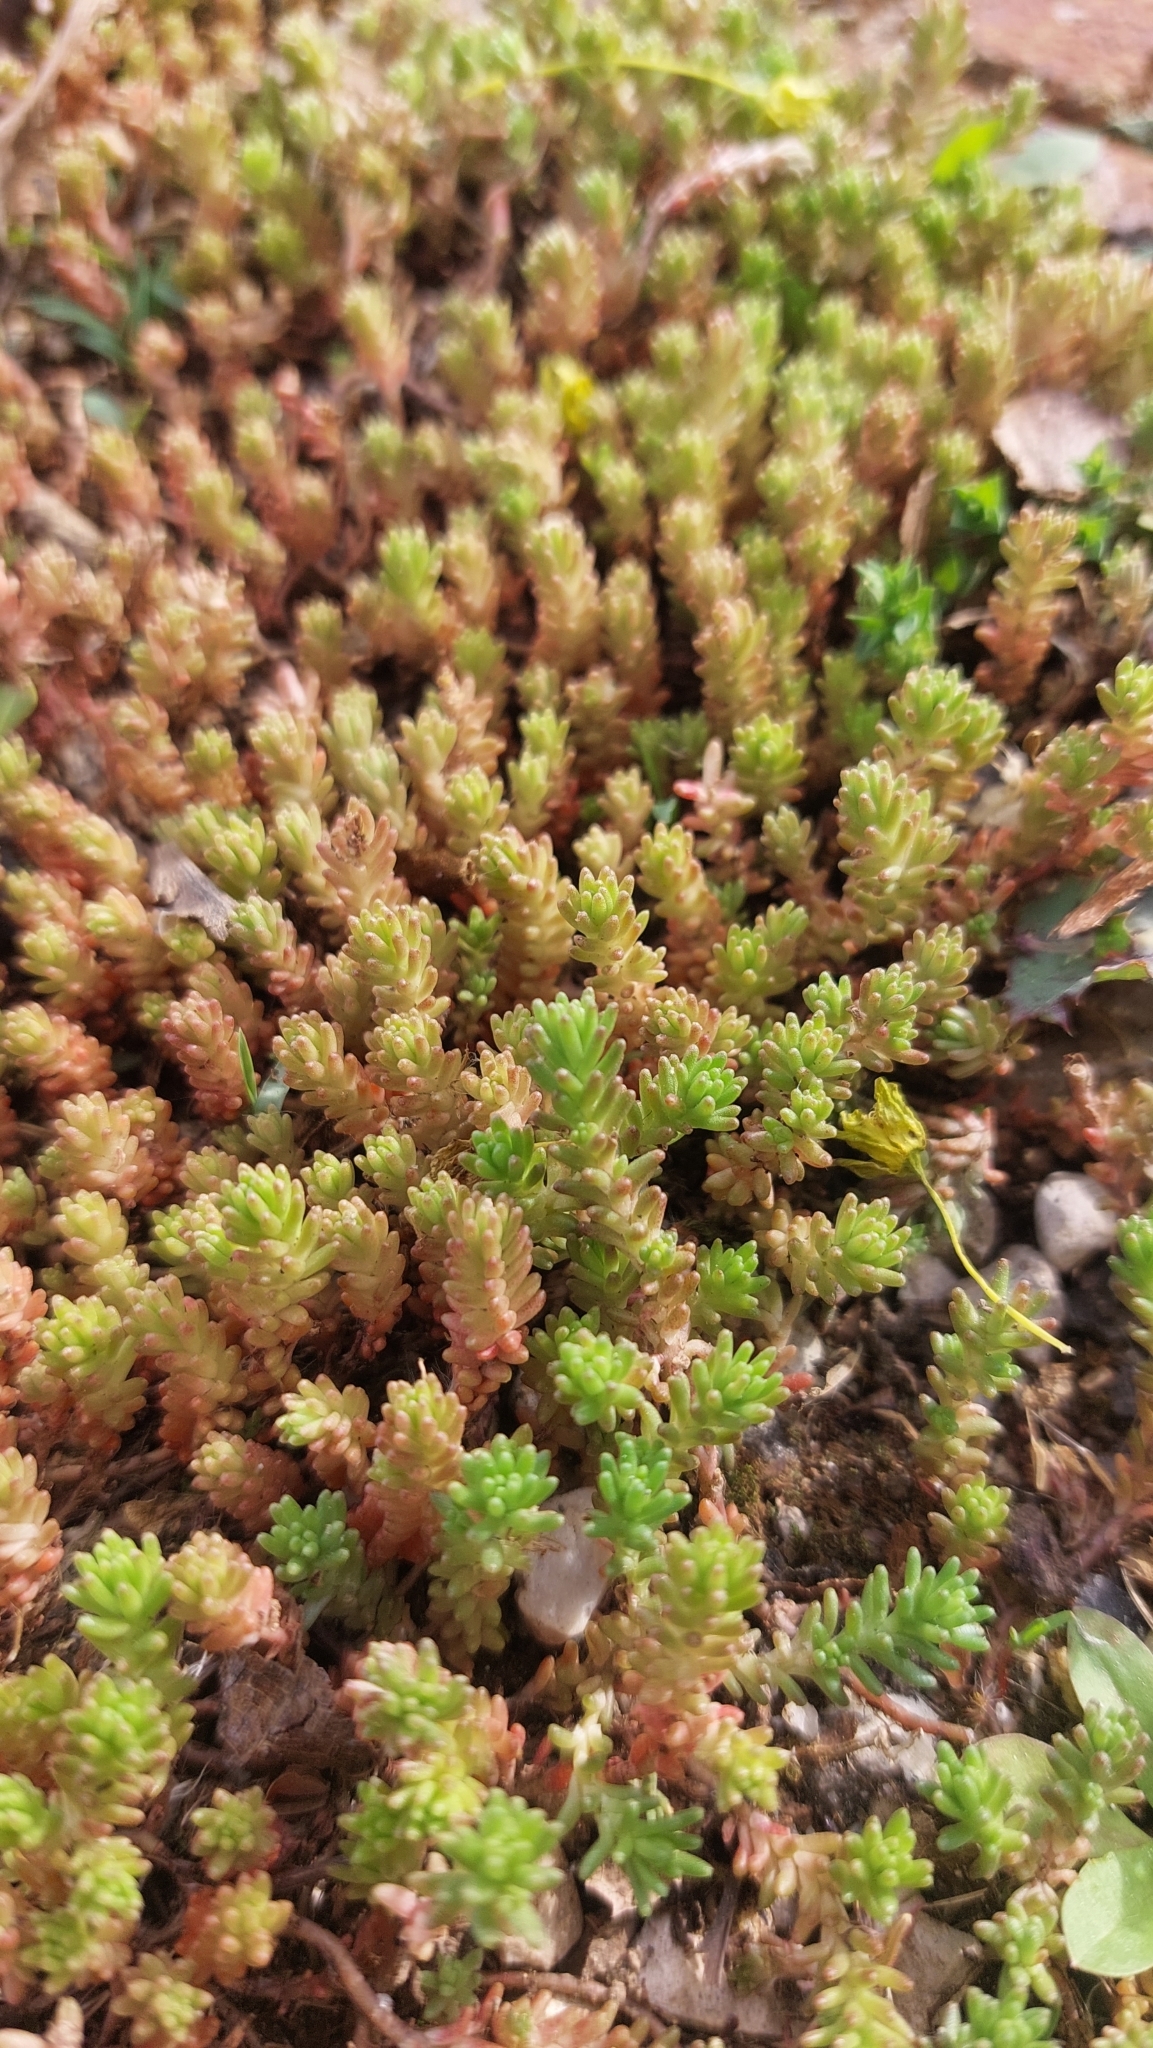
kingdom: Plantae
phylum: Tracheophyta
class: Magnoliopsida
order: Saxifragales
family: Crassulaceae
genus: Sedum
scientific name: Sedum sexangulare
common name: Tasteless stonecrop
